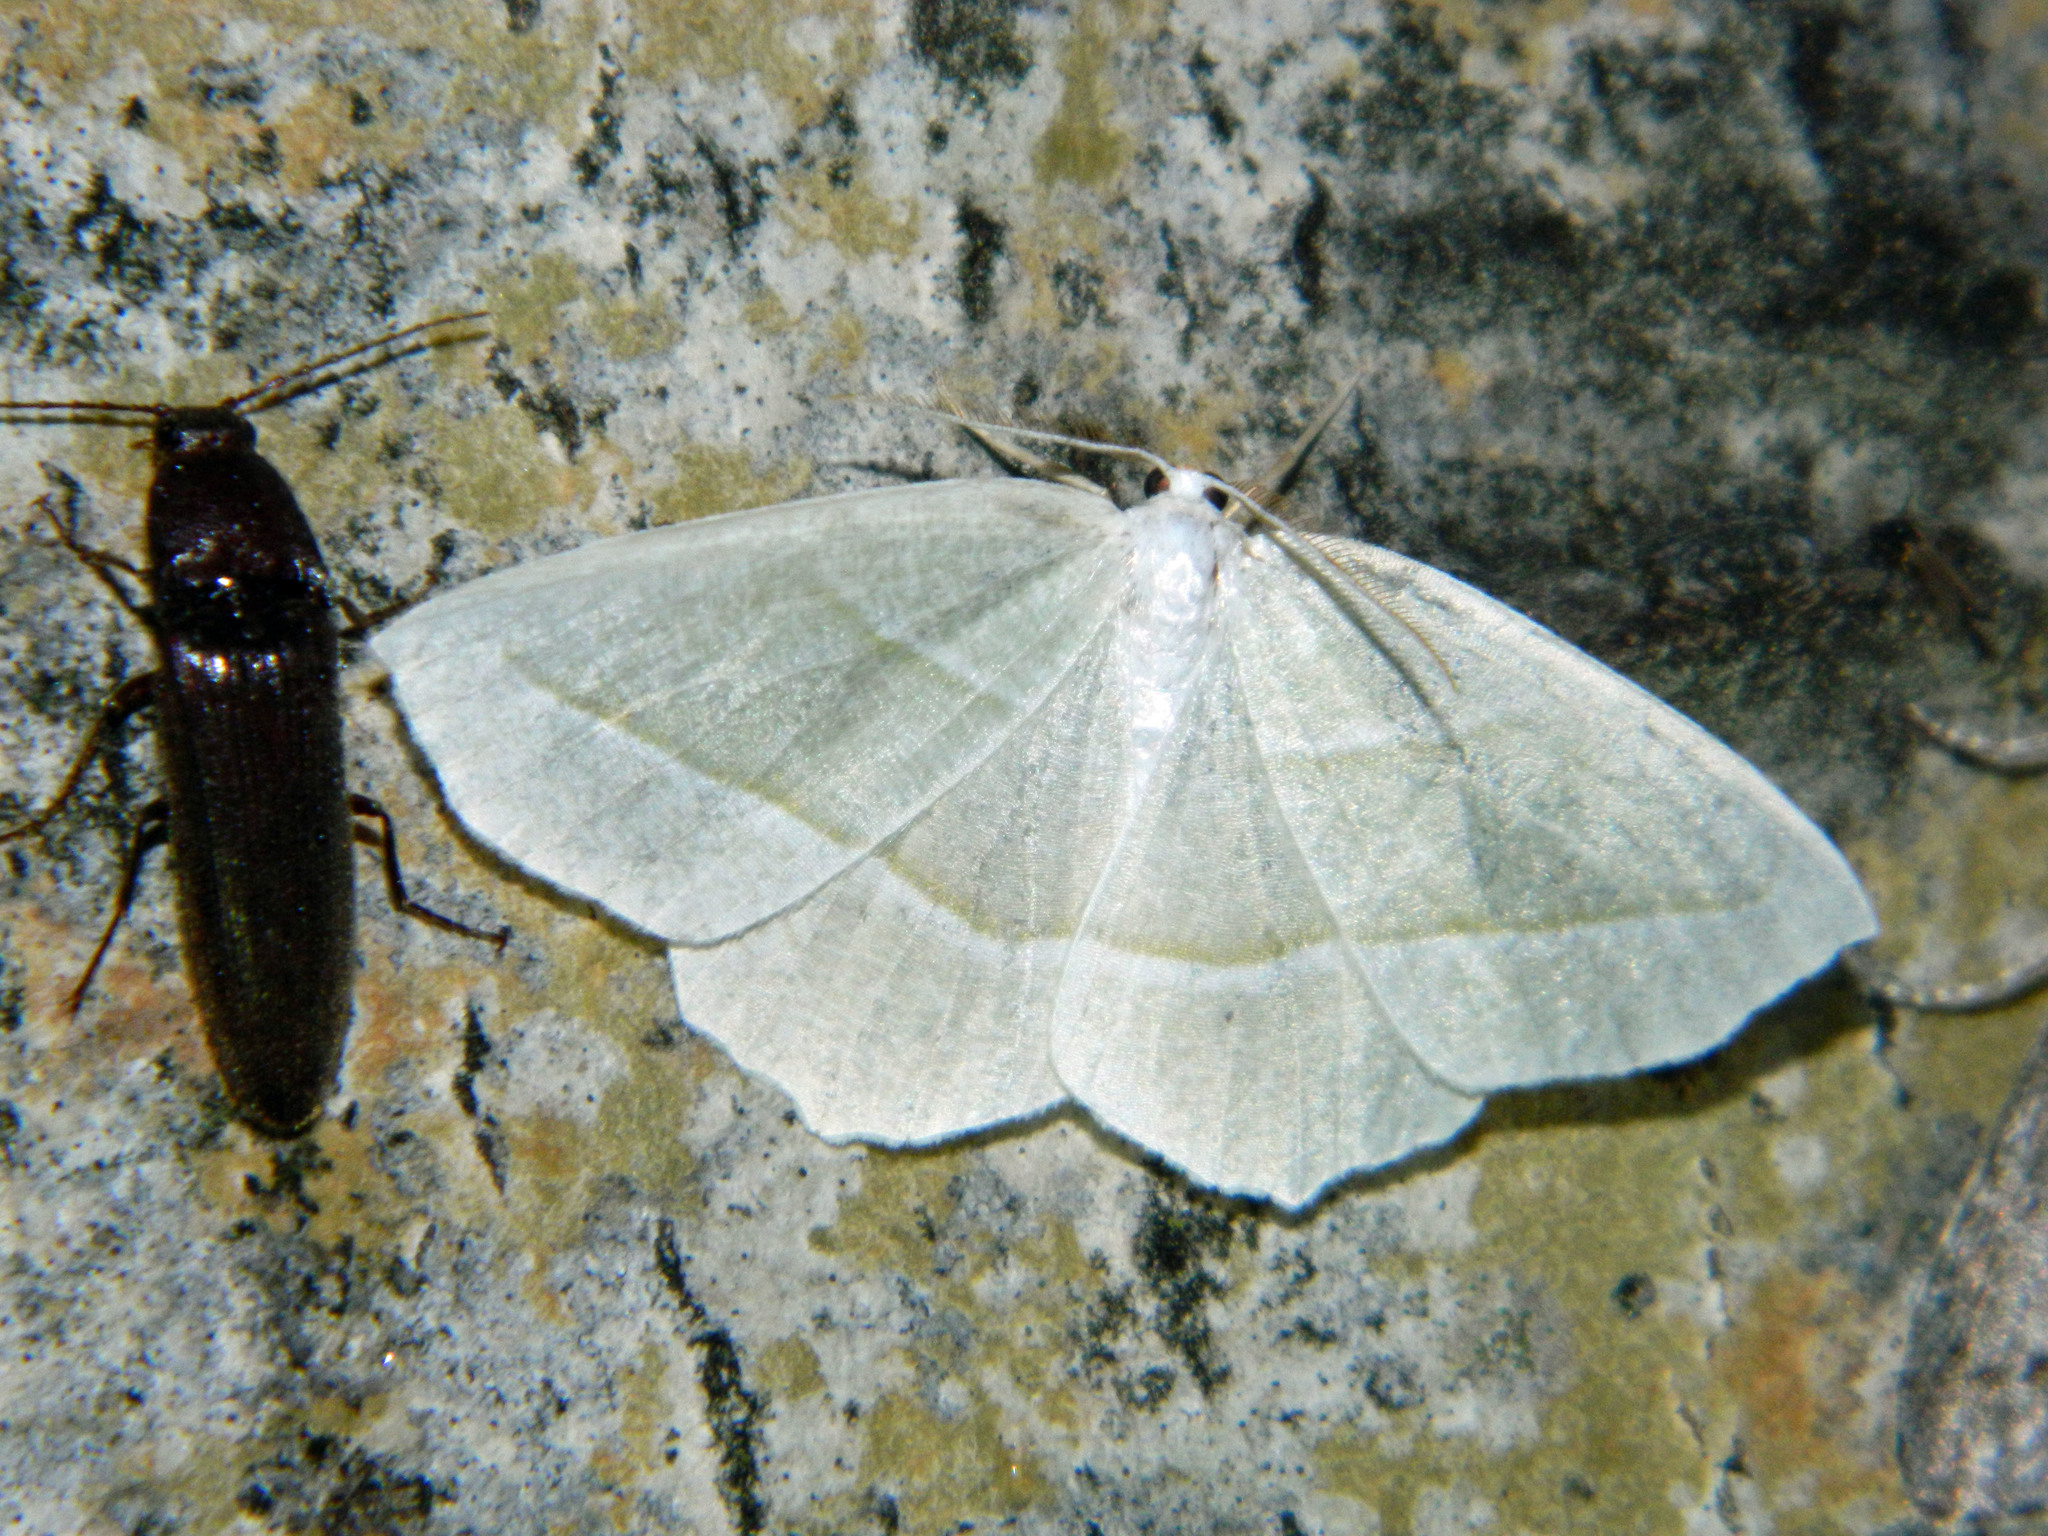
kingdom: Animalia
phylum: Arthropoda
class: Insecta
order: Lepidoptera
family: Geometridae
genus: Campaea
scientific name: Campaea perlata
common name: Fringed looper
